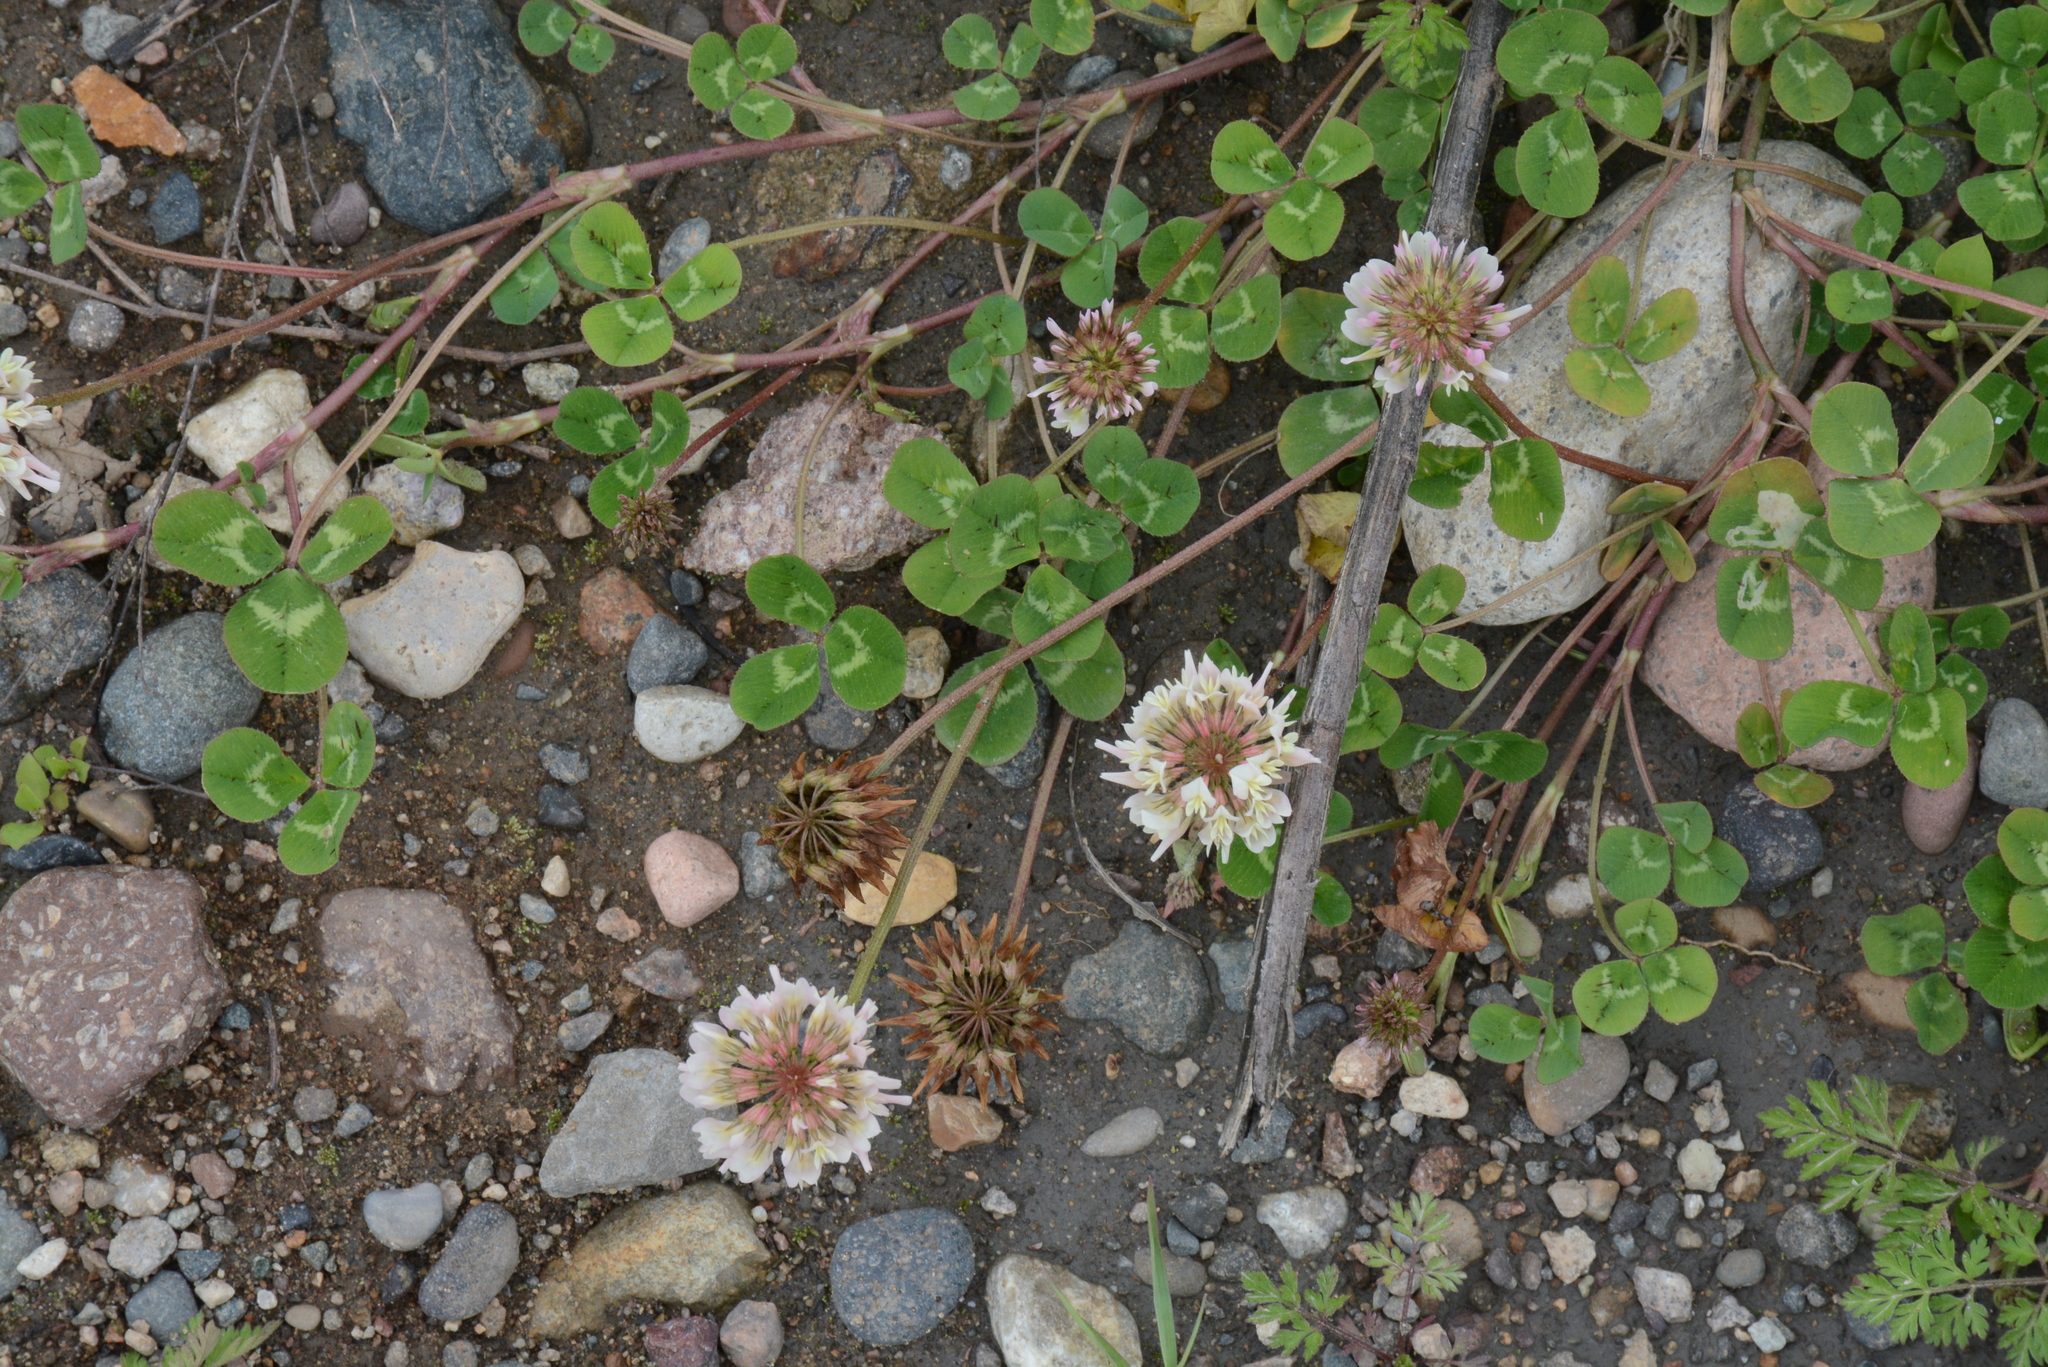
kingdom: Plantae
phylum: Tracheophyta
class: Magnoliopsida
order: Fabales
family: Fabaceae
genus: Trifolium
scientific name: Trifolium repens
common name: White clover
